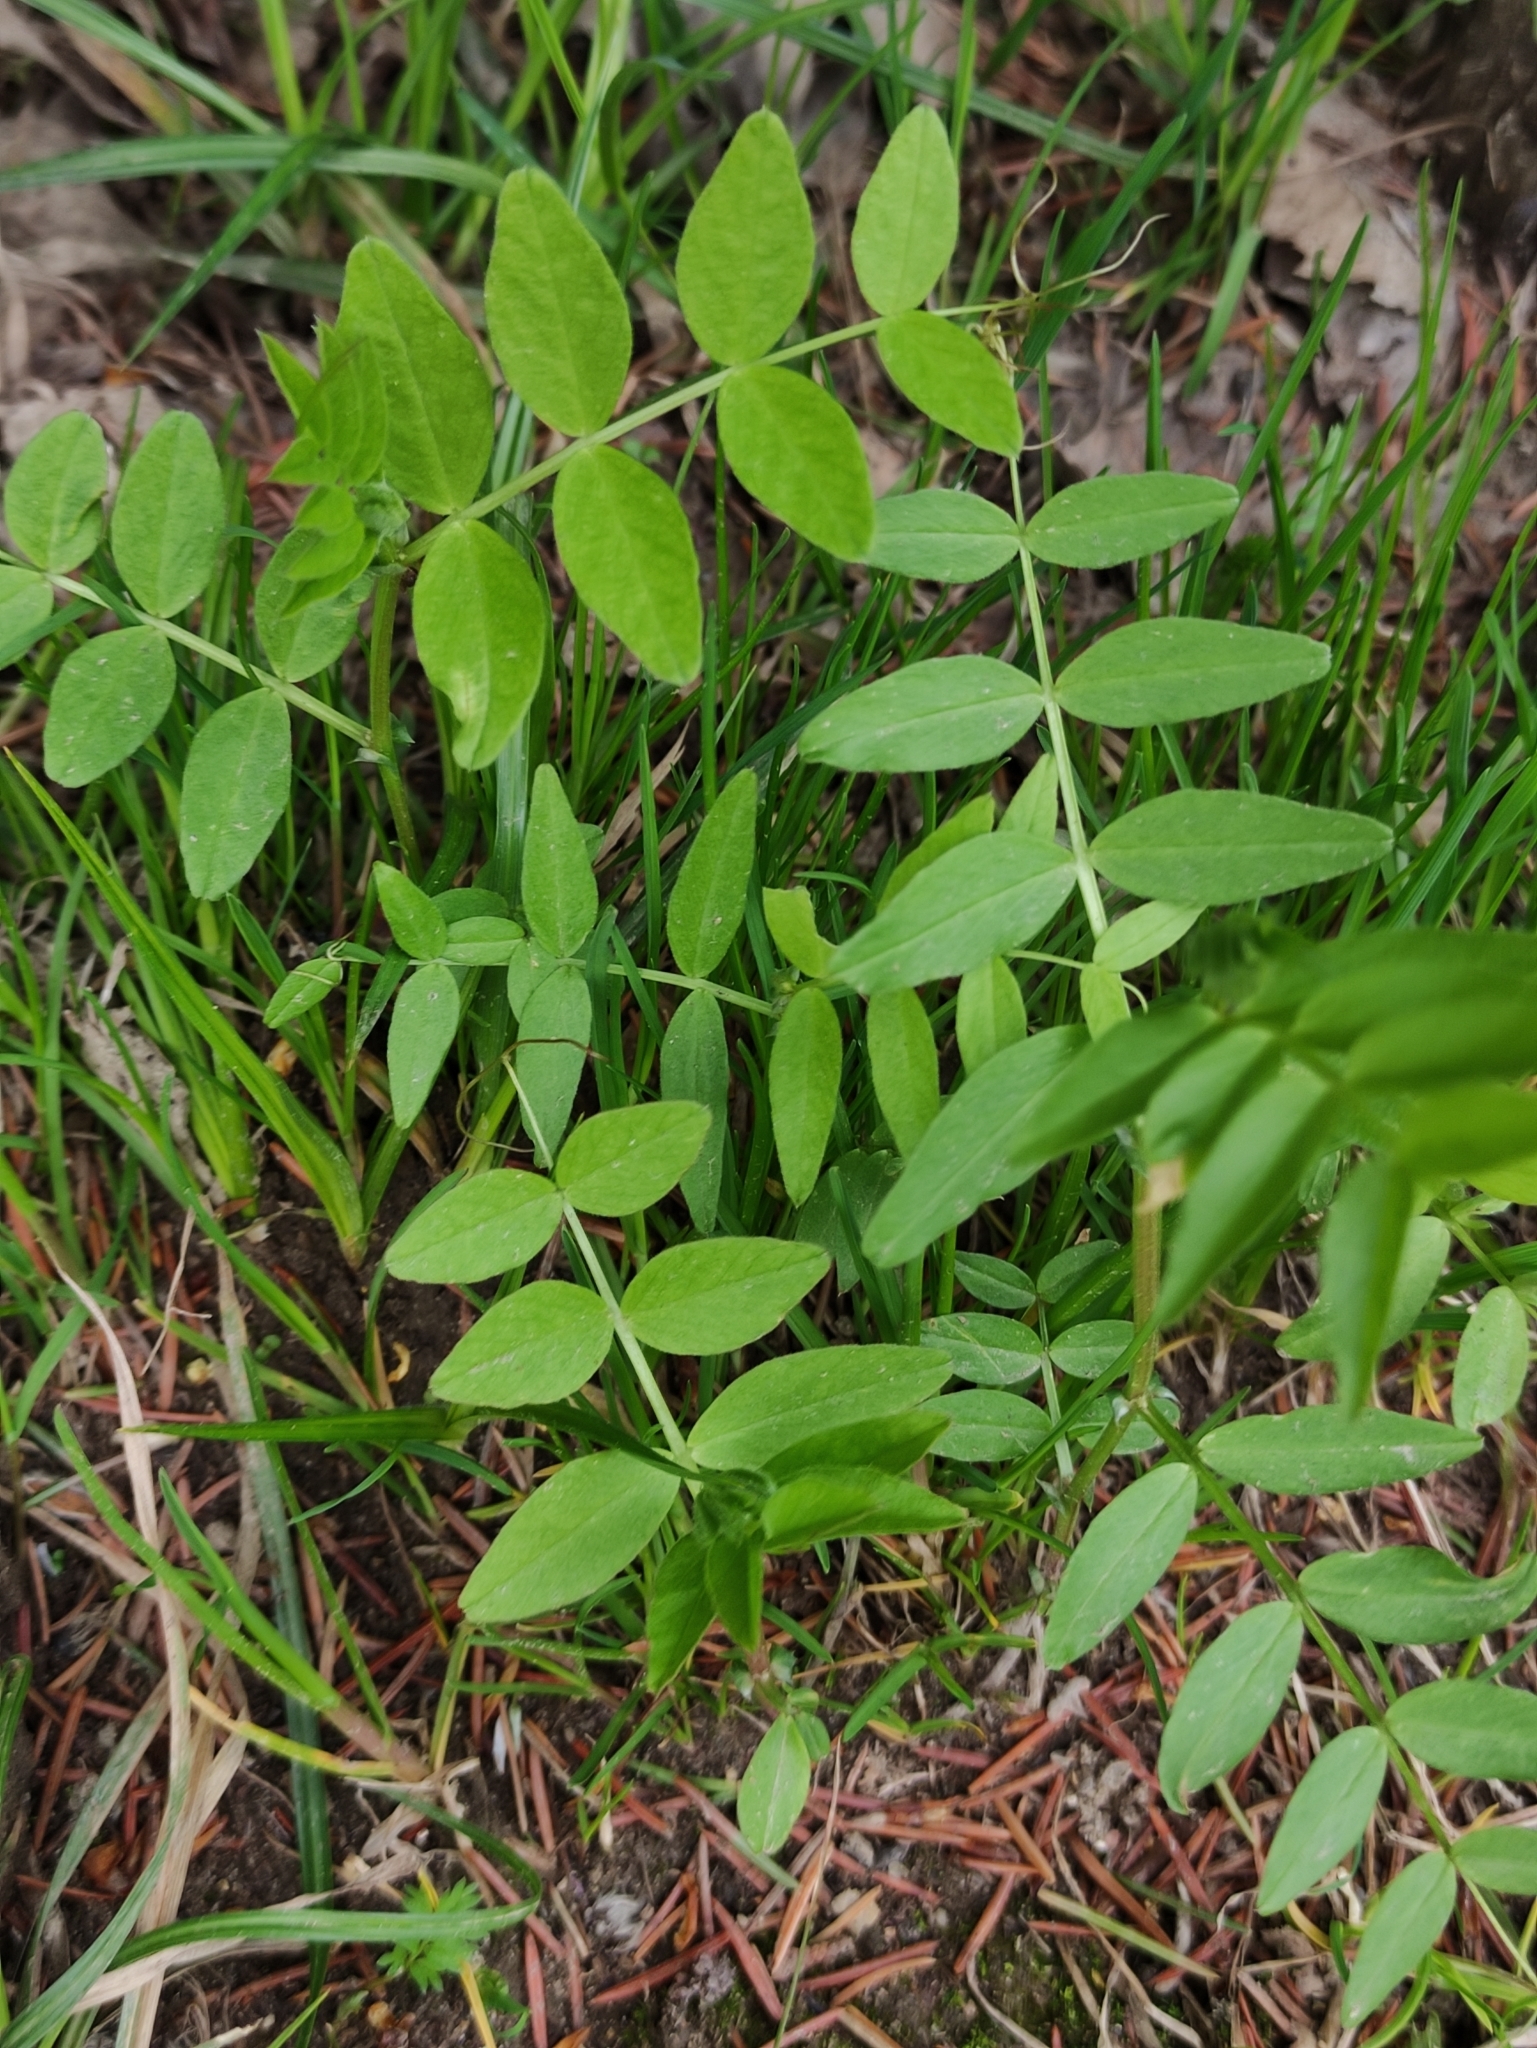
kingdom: Plantae
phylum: Tracheophyta
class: Magnoliopsida
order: Fabales
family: Fabaceae
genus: Vicia
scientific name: Vicia sepium
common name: Bush vetch
